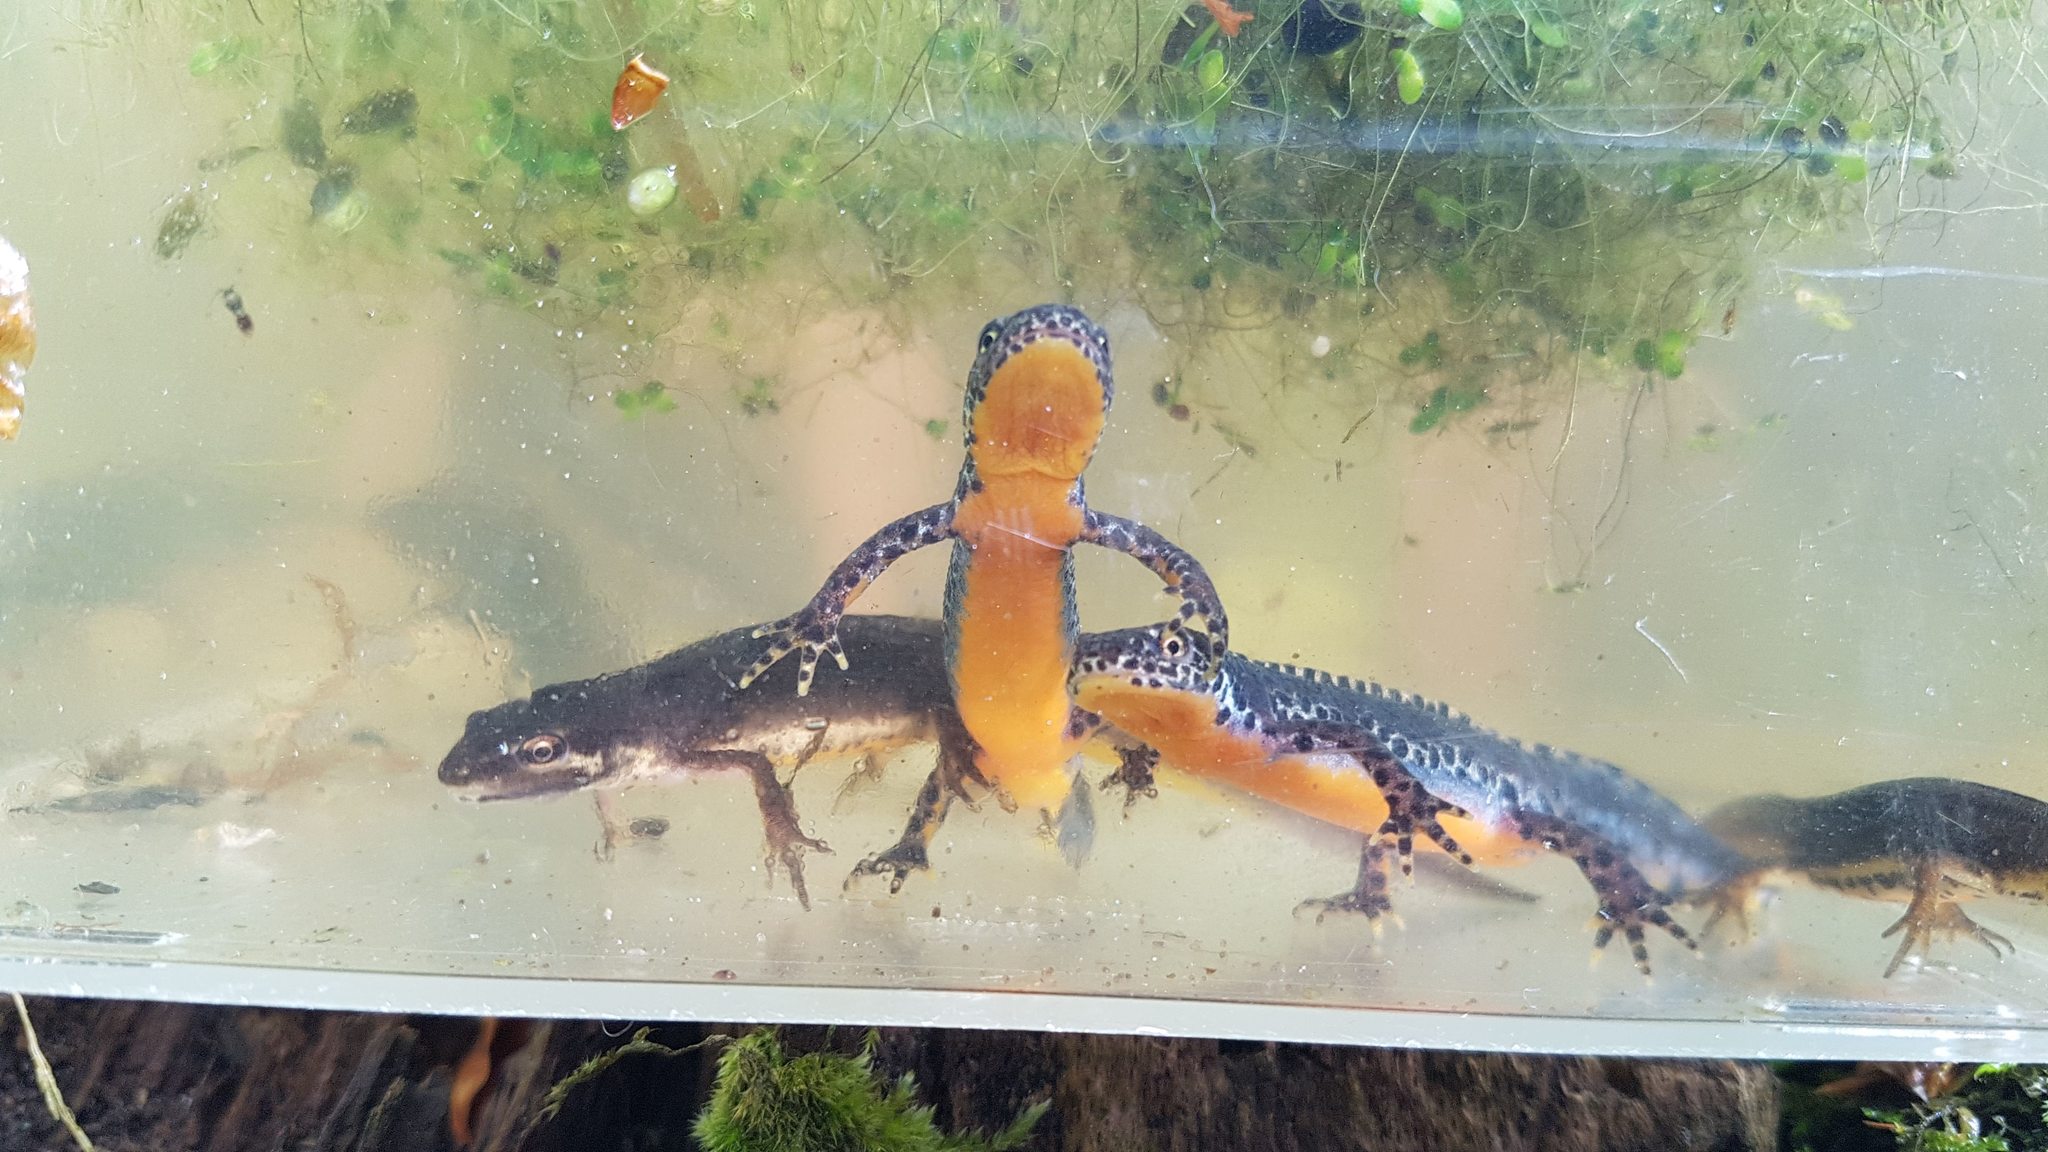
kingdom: Animalia
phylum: Chordata
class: Amphibia
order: Caudata
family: Salamandridae
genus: Ichthyosaura
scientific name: Ichthyosaura alpestris
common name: Alpine newt
